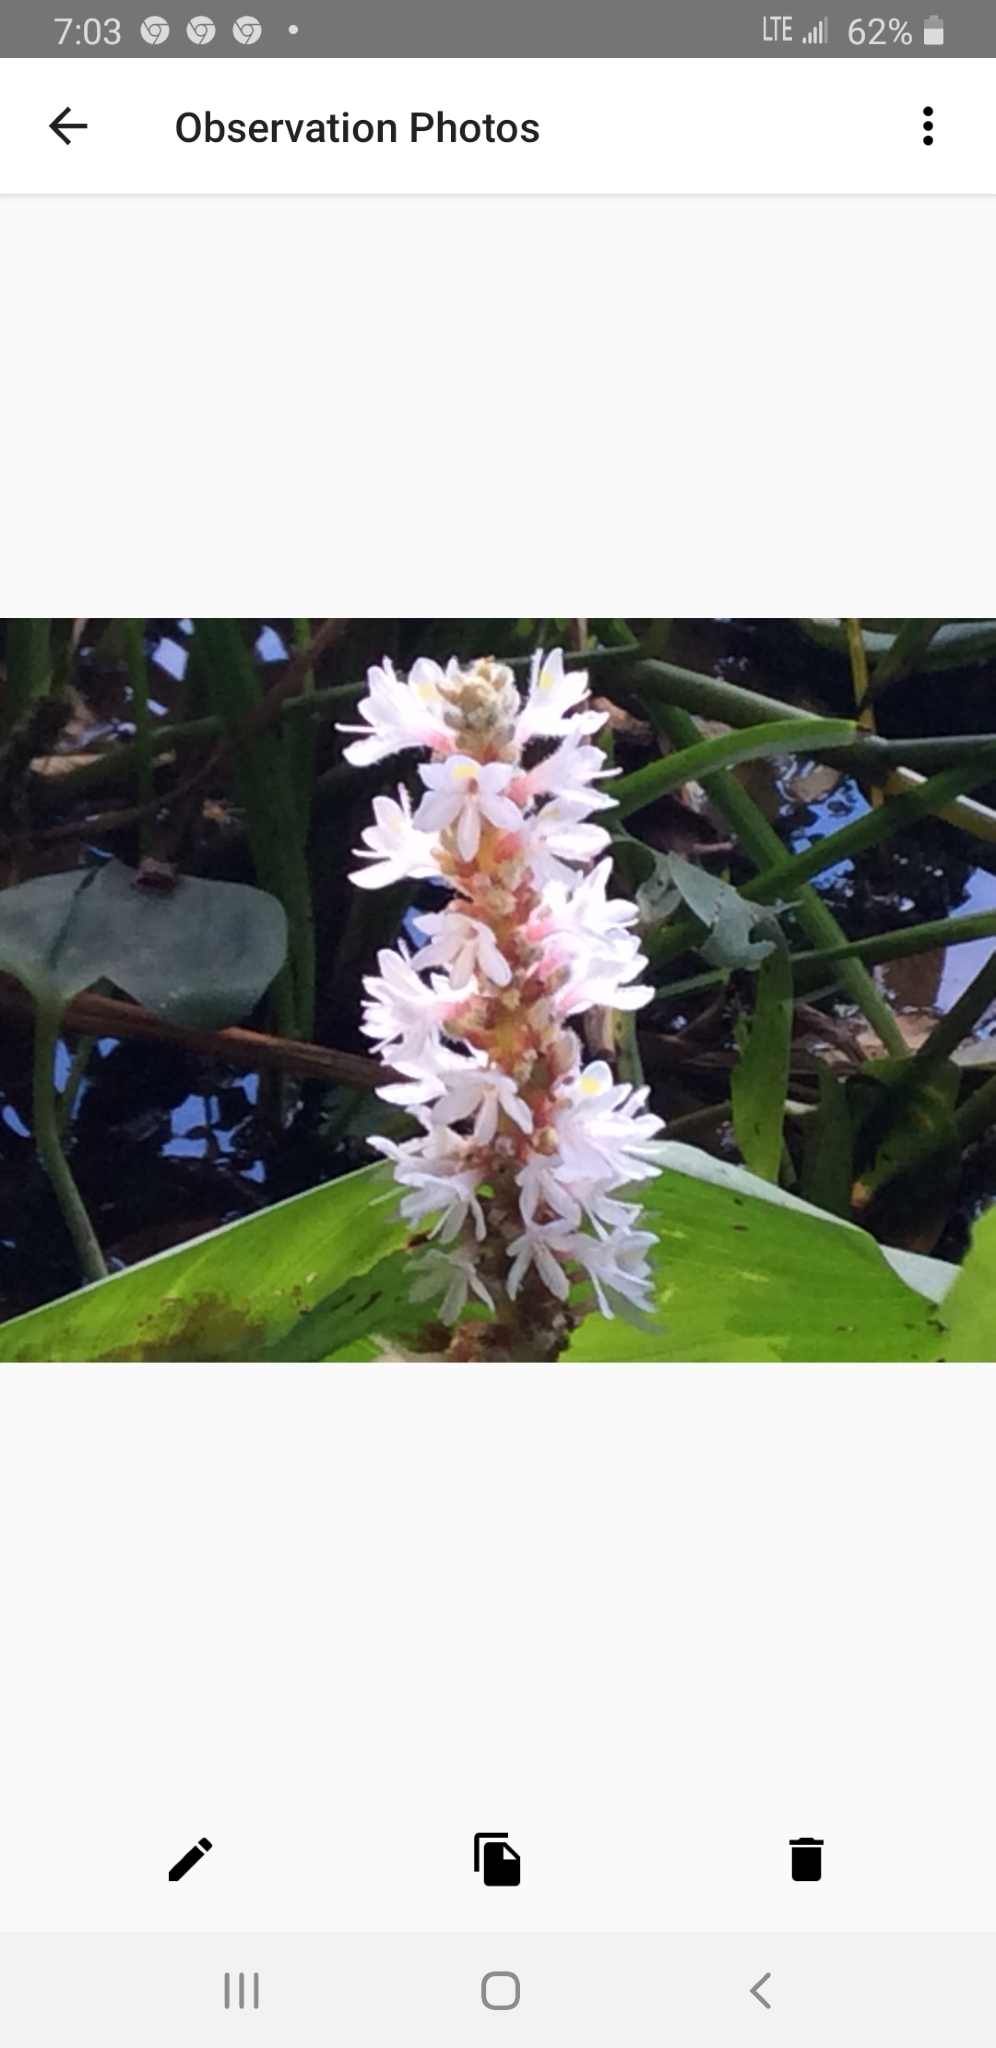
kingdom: Plantae
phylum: Tracheophyta
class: Liliopsida
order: Commelinales
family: Pontederiaceae
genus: Pontederia
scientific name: Pontederia cordata
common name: Pickerelweed
